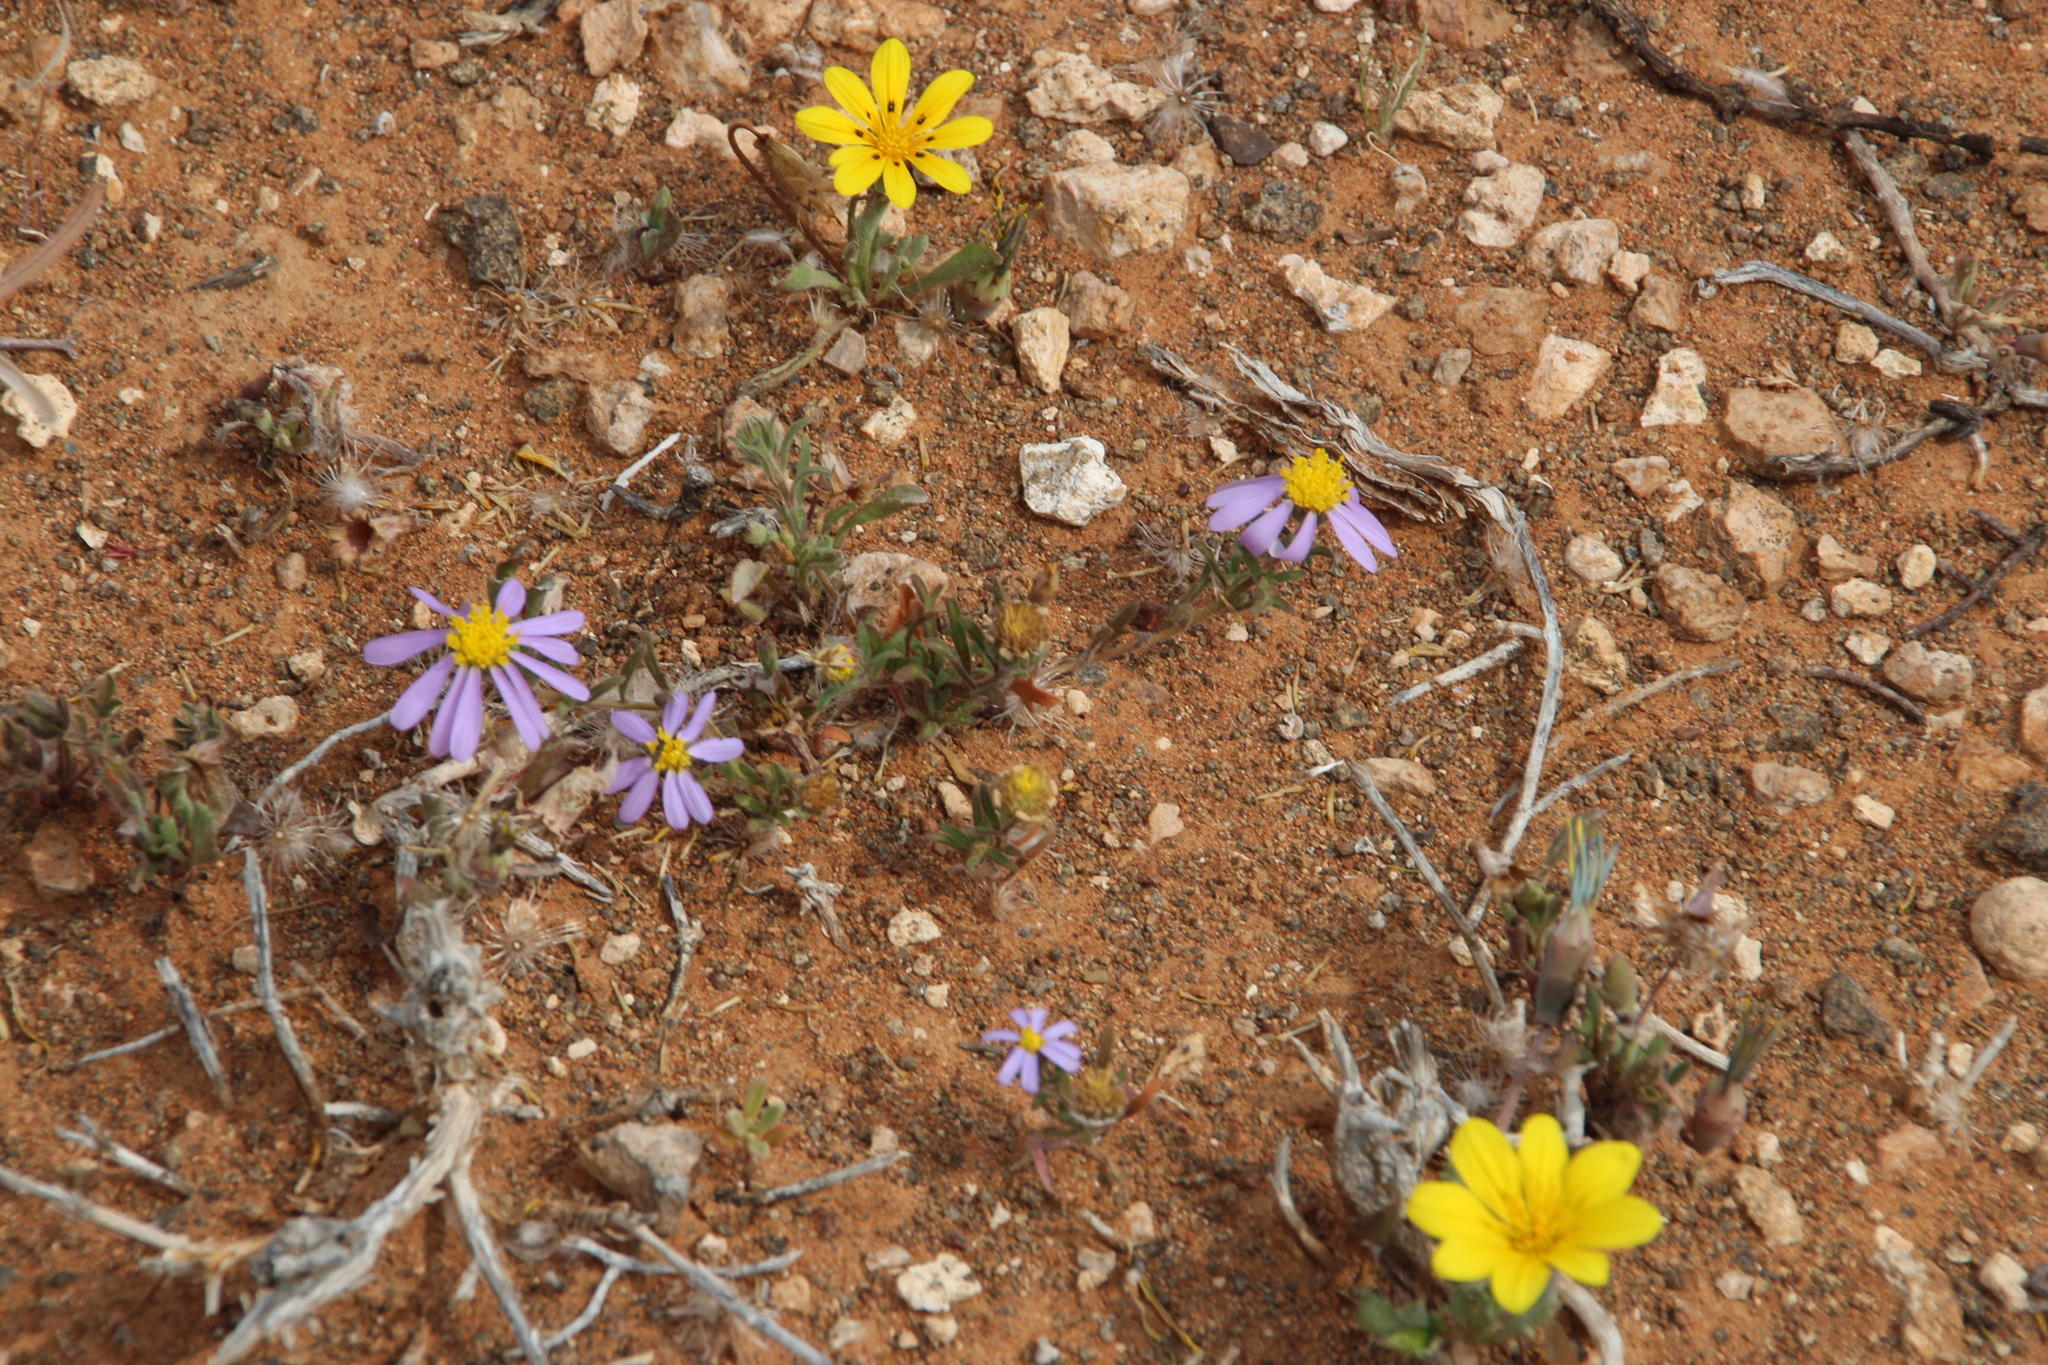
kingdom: Plantae
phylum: Tracheophyta
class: Magnoliopsida
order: Asterales
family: Asteraceae
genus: Gazania
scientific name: Gazania lichtensteinii
